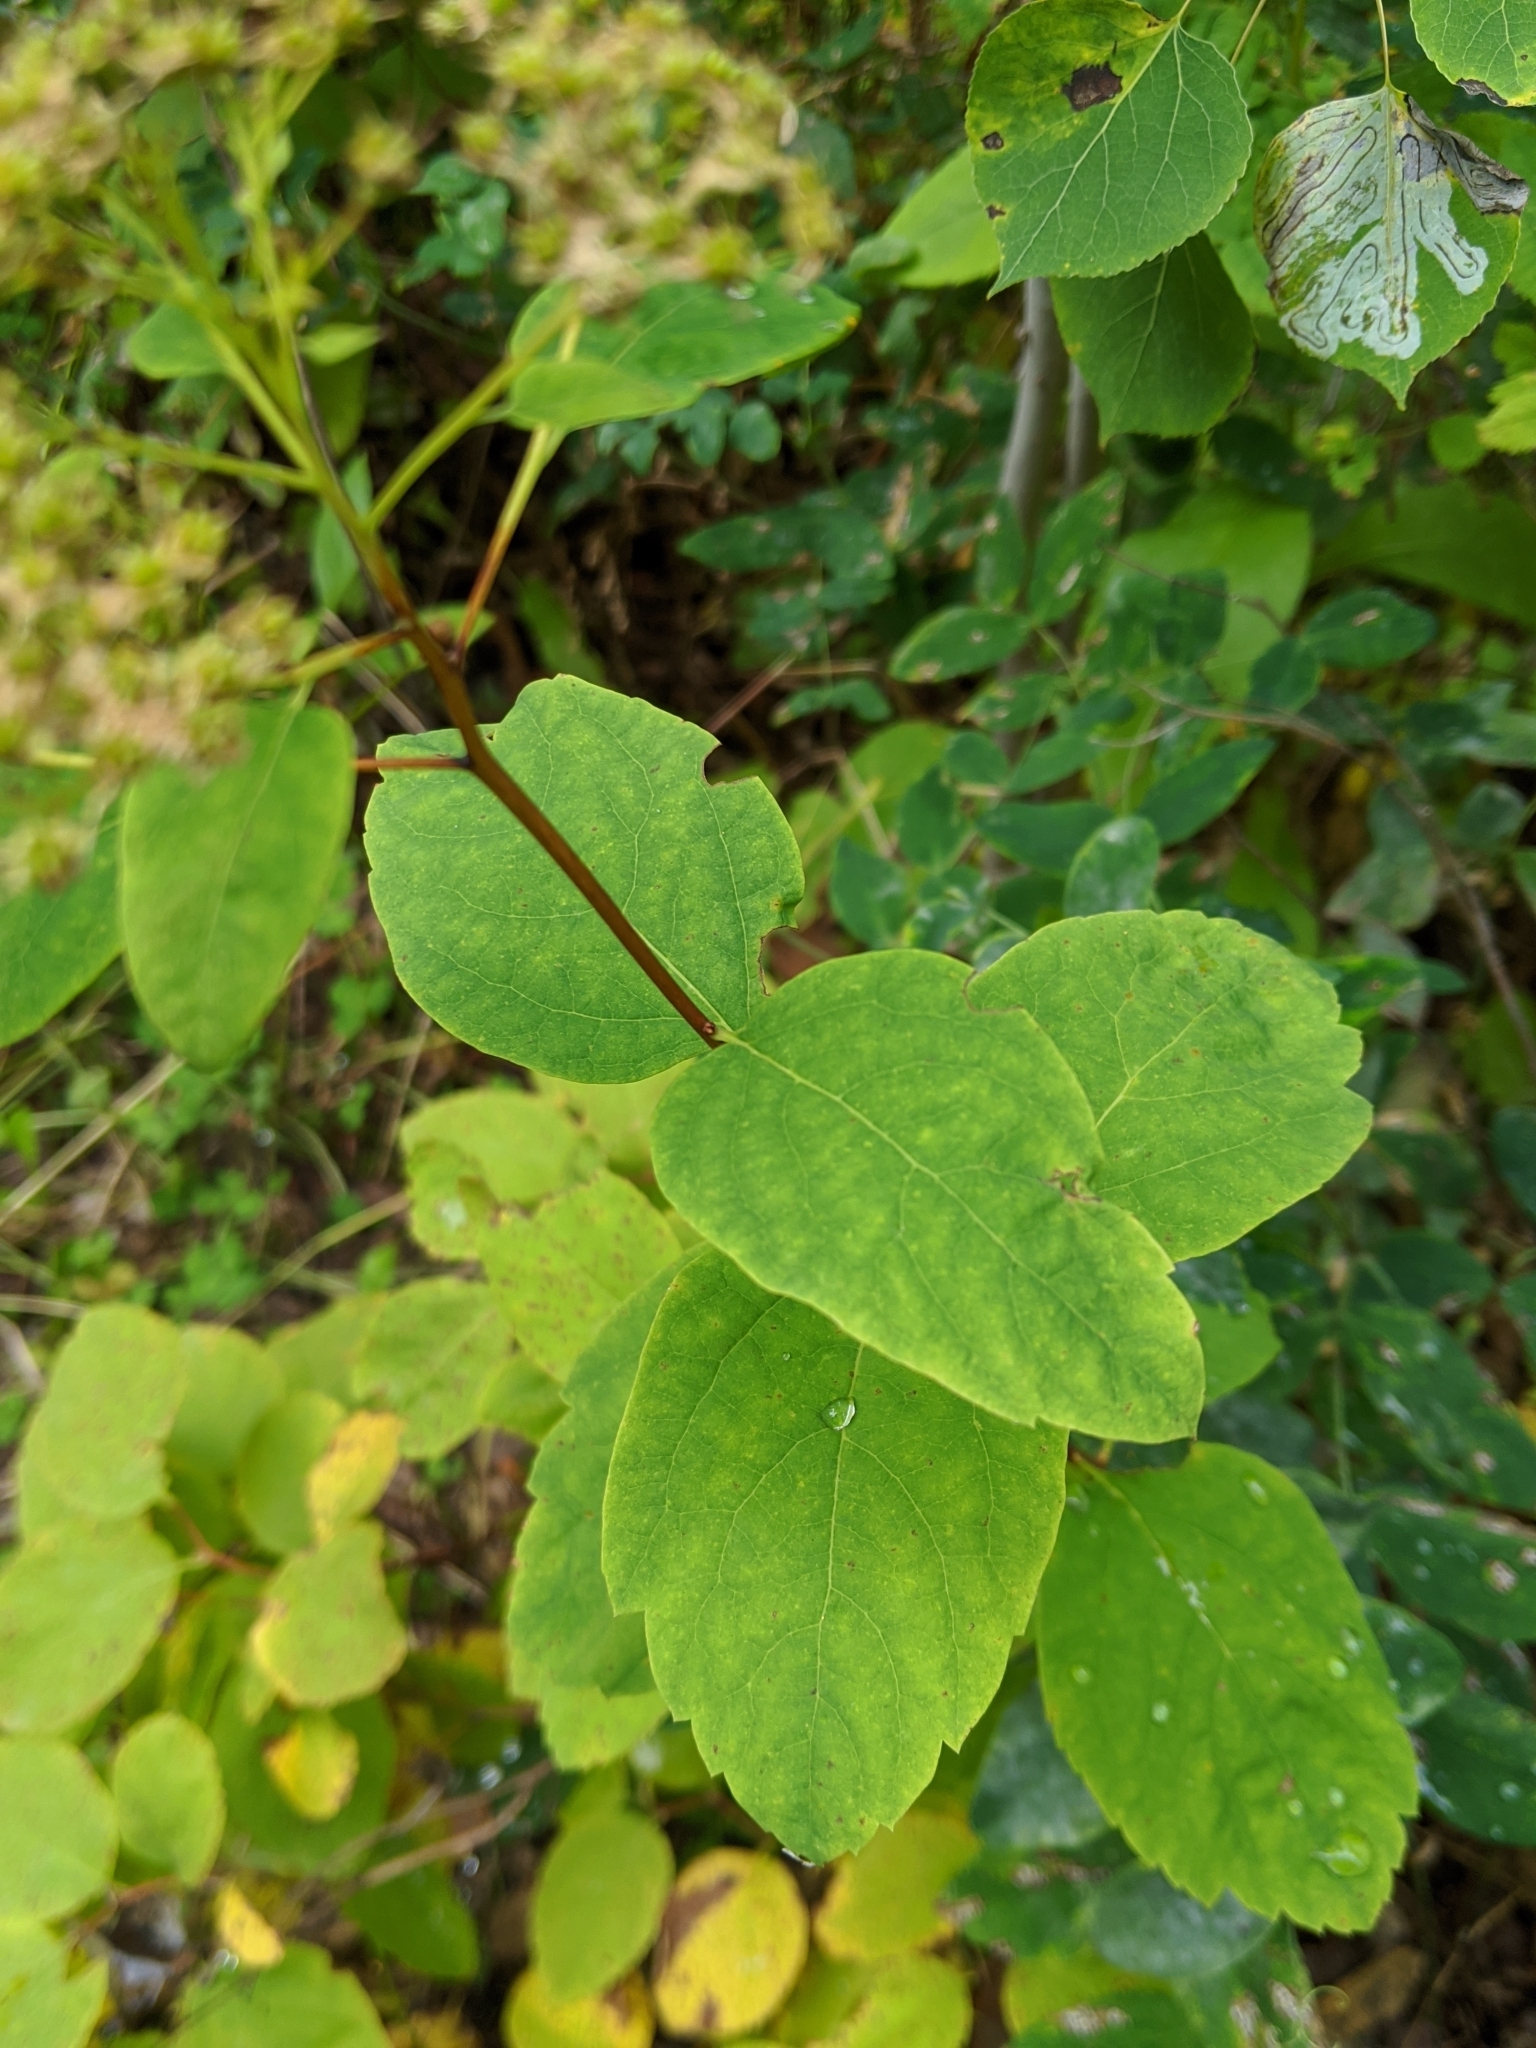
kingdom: Plantae
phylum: Tracheophyta
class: Magnoliopsida
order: Rosales
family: Rosaceae
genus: Spiraea
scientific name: Spiraea lucida
